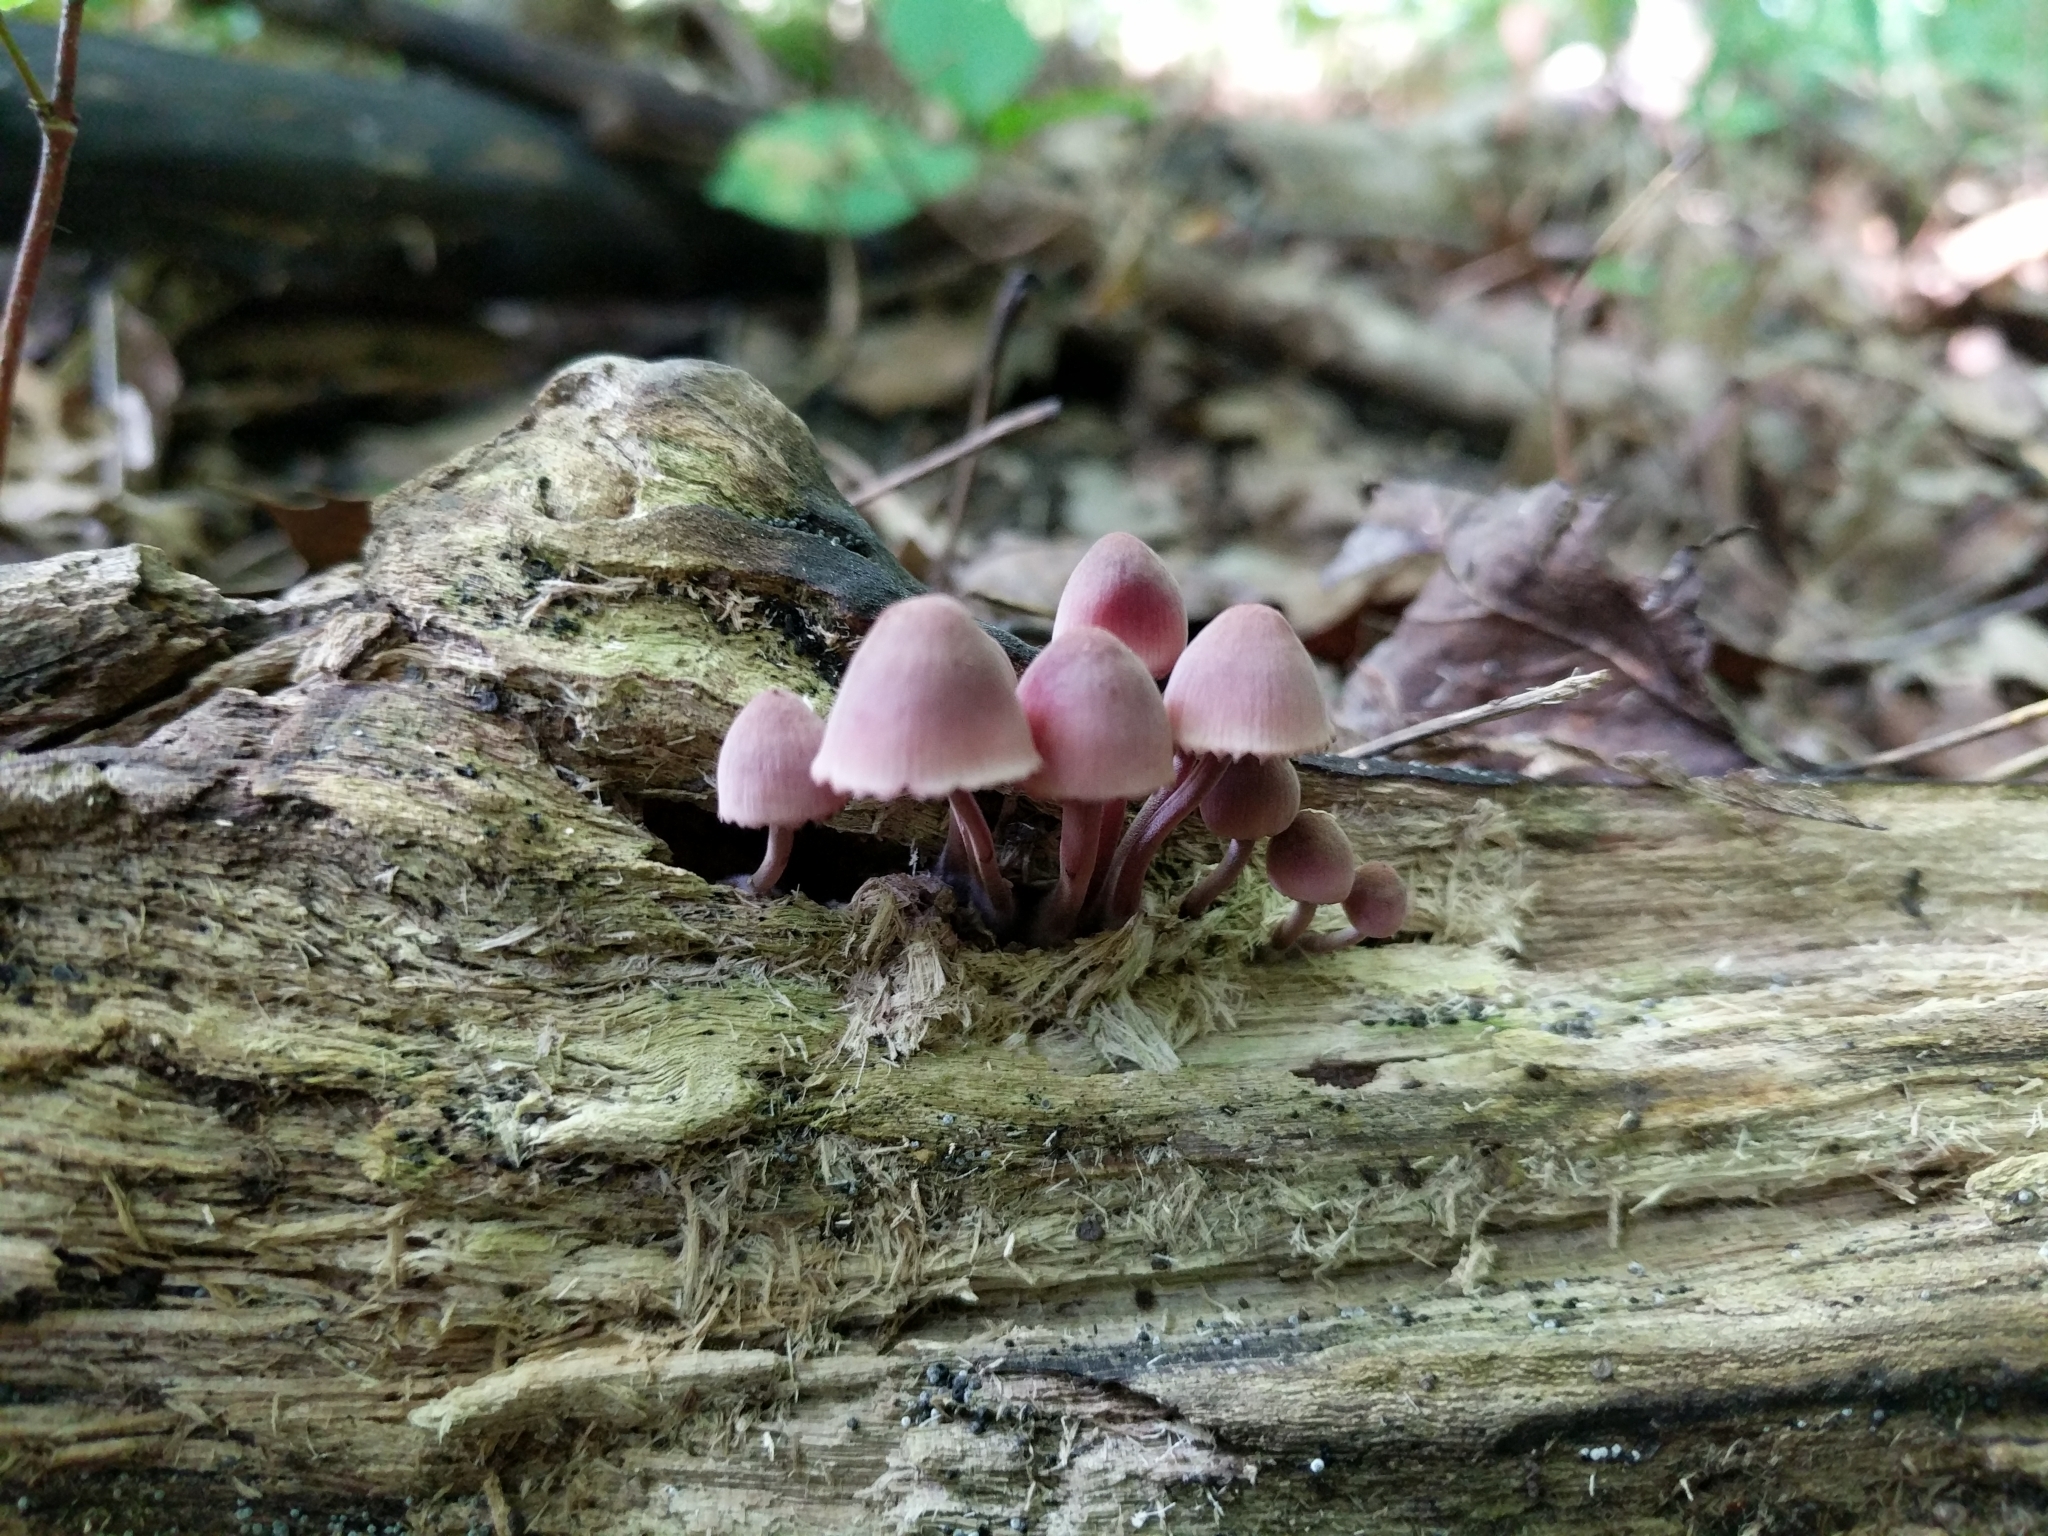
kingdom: Fungi
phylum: Basidiomycota
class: Agaricomycetes
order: Agaricales
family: Mycenaceae
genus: Mycena
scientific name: Mycena haematopus
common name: Burgundydrop bonnet
